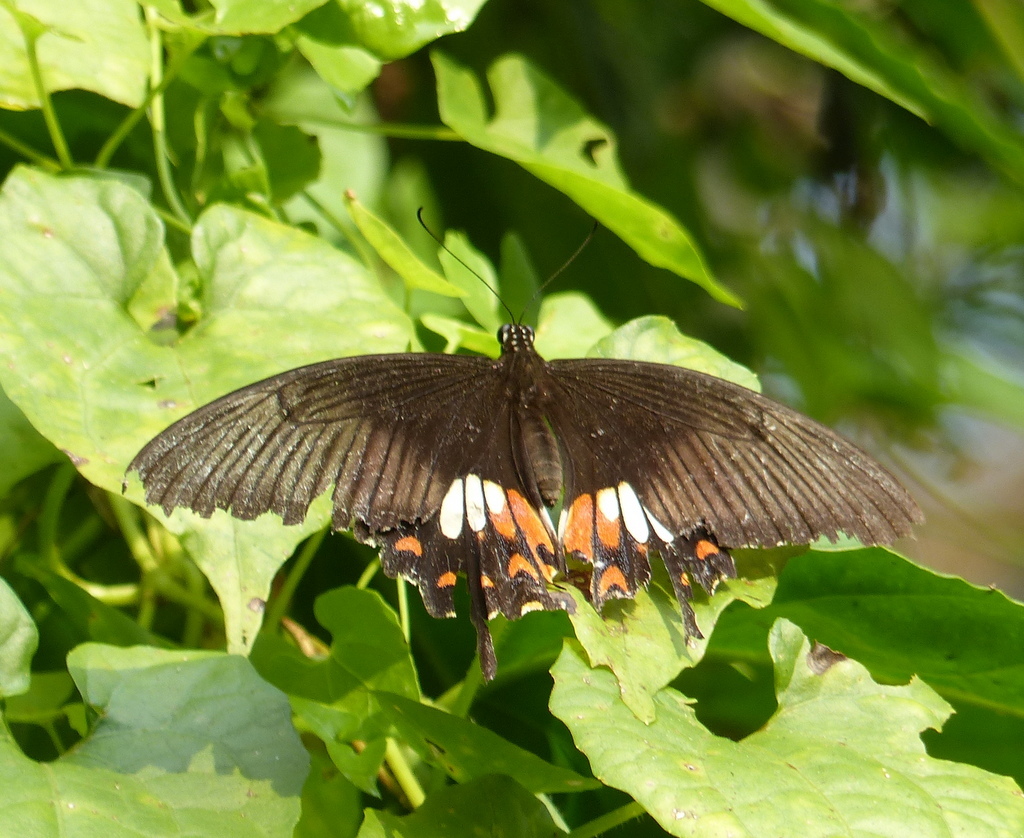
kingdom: Animalia
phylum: Arthropoda
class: Insecta
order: Lepidoptera
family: Papilionidae
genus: Papilio
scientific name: Papilio polytes
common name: Common mormon
